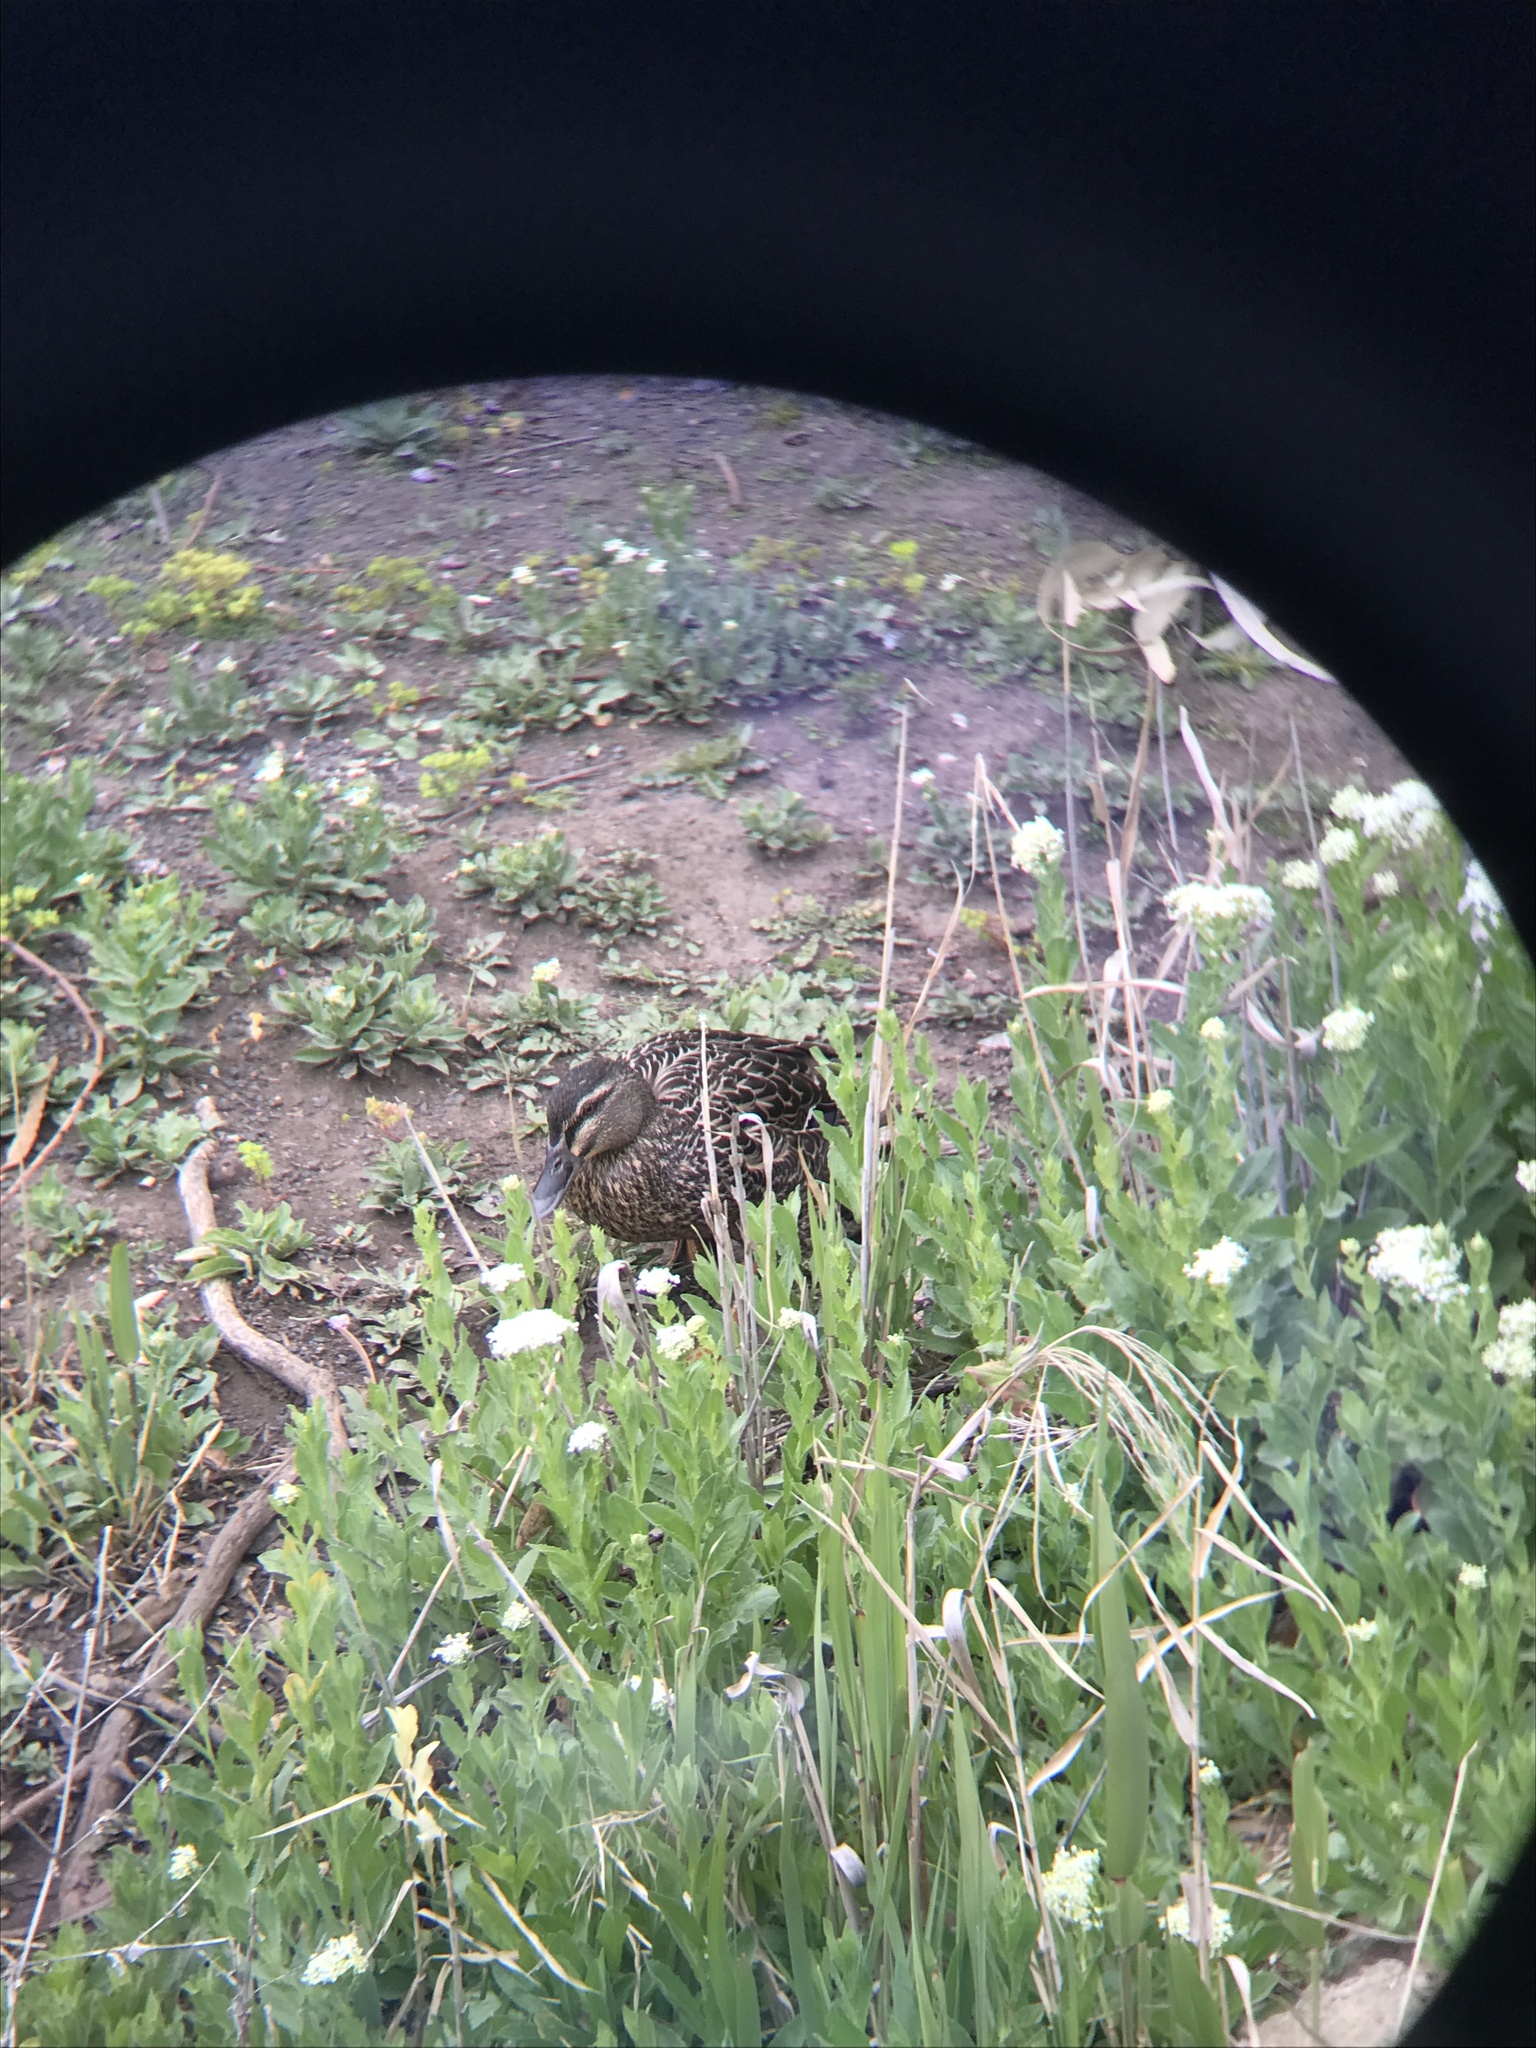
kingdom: Animalia
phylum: Chordata
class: Aves
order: Anseriformes
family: Anatidae
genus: Anas
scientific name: Anas
